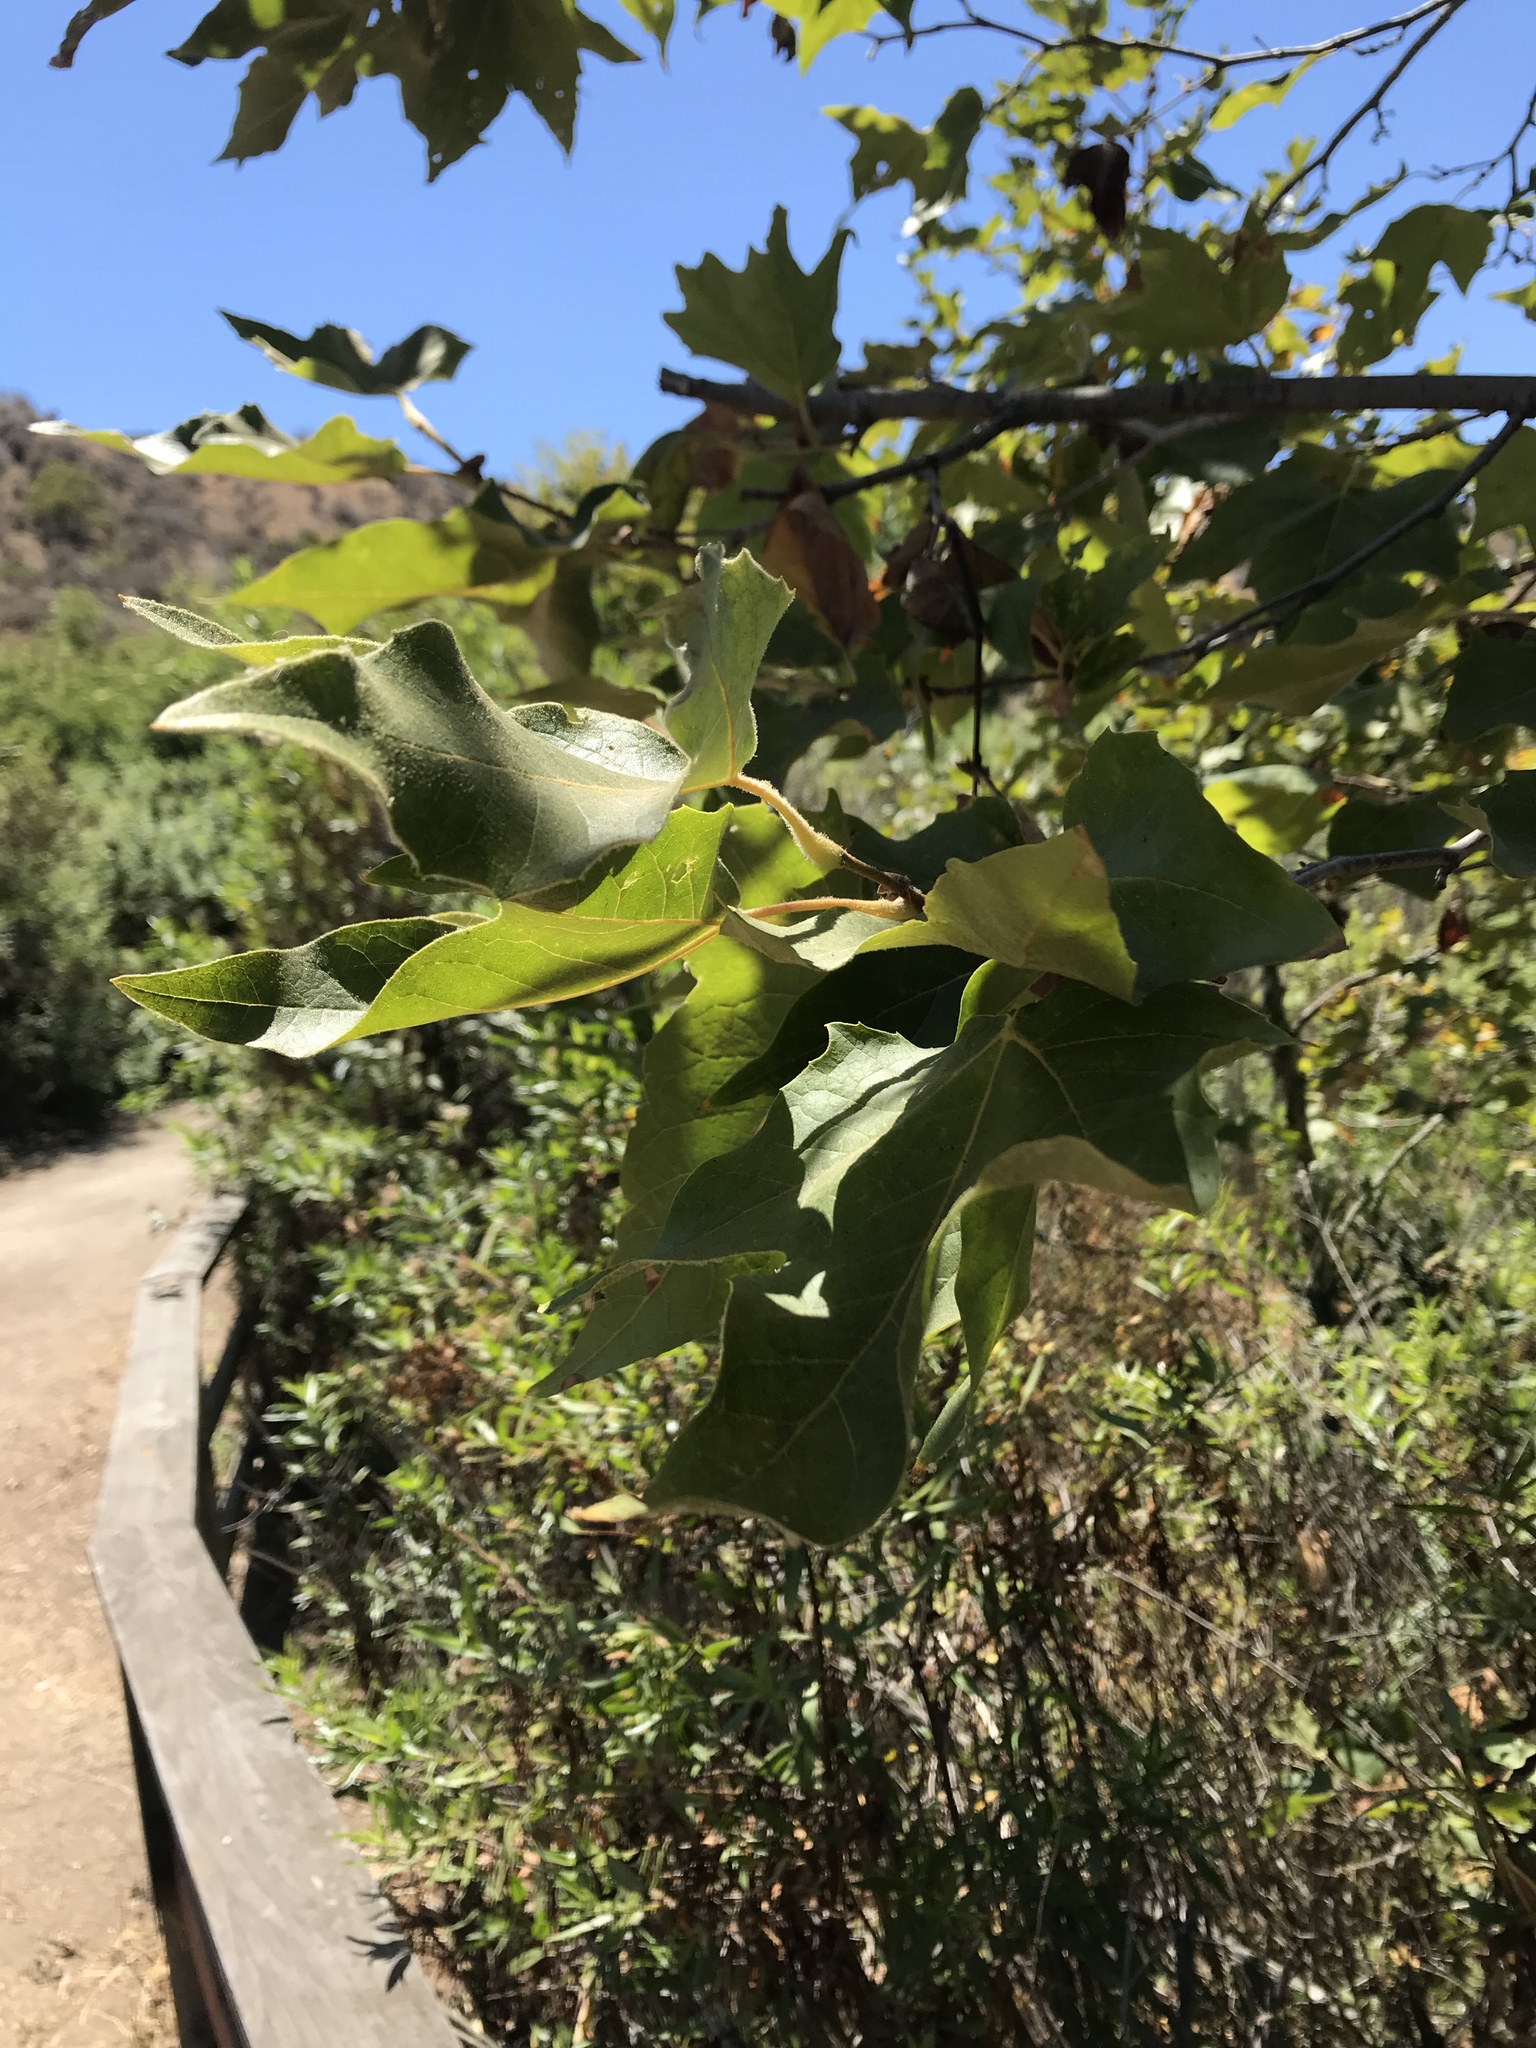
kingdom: Plantae
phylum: Tracheophyta
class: Magnoliopsida
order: Proteales
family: Platanaceae
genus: Platanus
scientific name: Platanus racemosa
